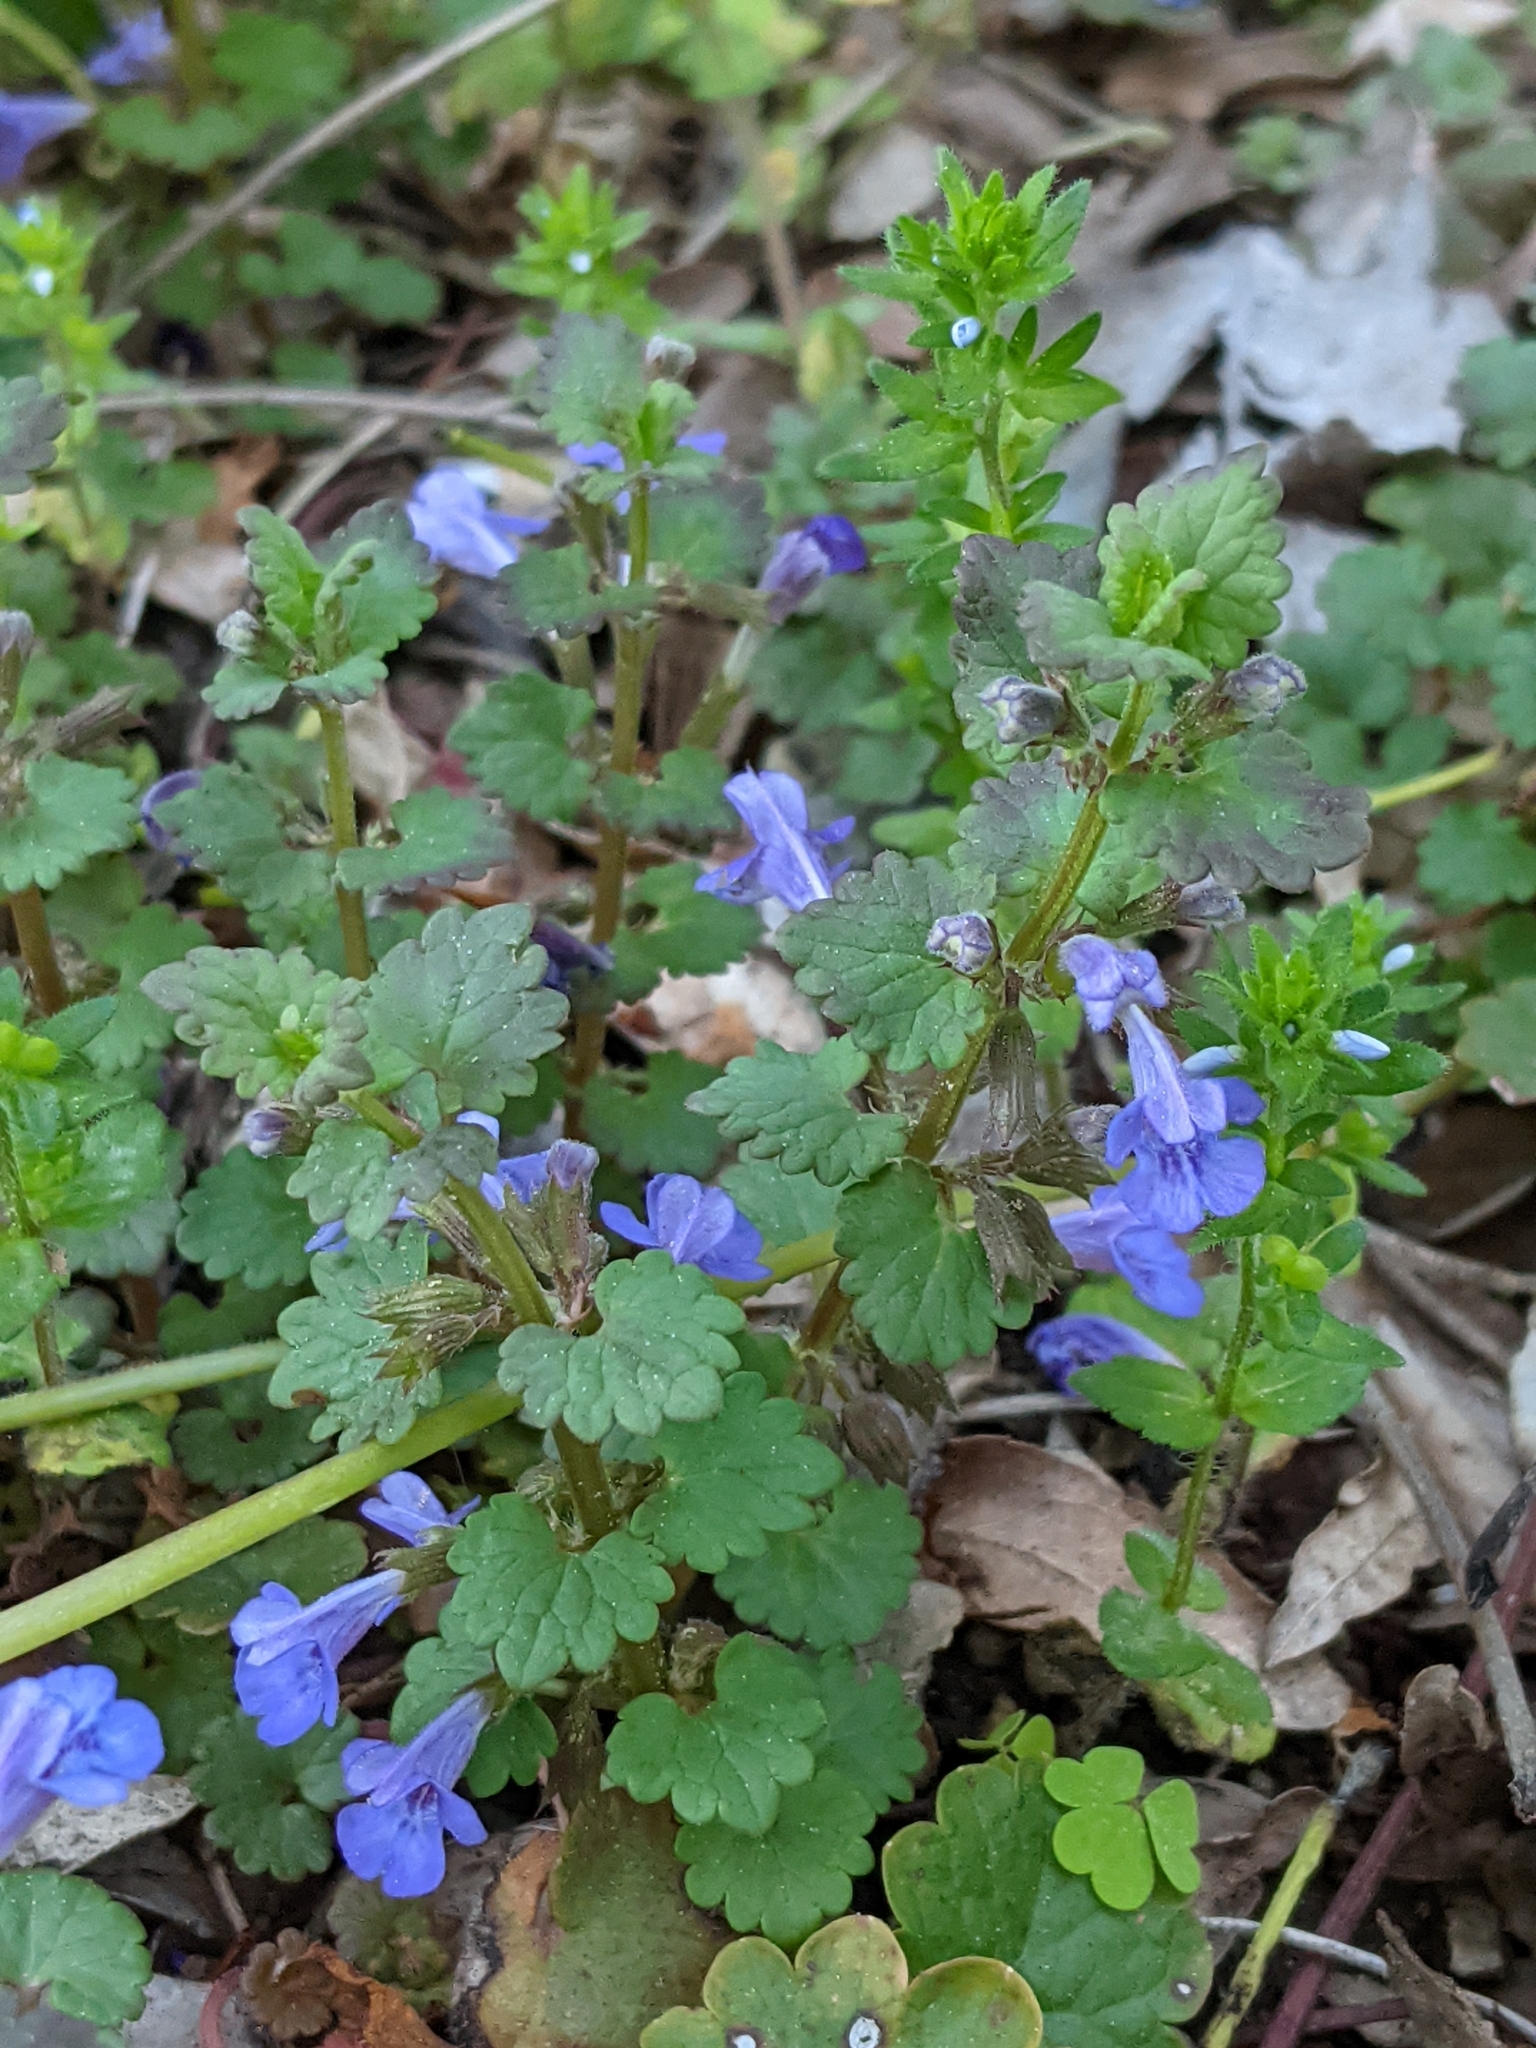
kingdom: Plantae
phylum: Tracheophyta
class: Magnoliopsida
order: Lamiales
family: Lamiaceae
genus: Glechoma
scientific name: Glechoma hederacea
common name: Ground ivy
